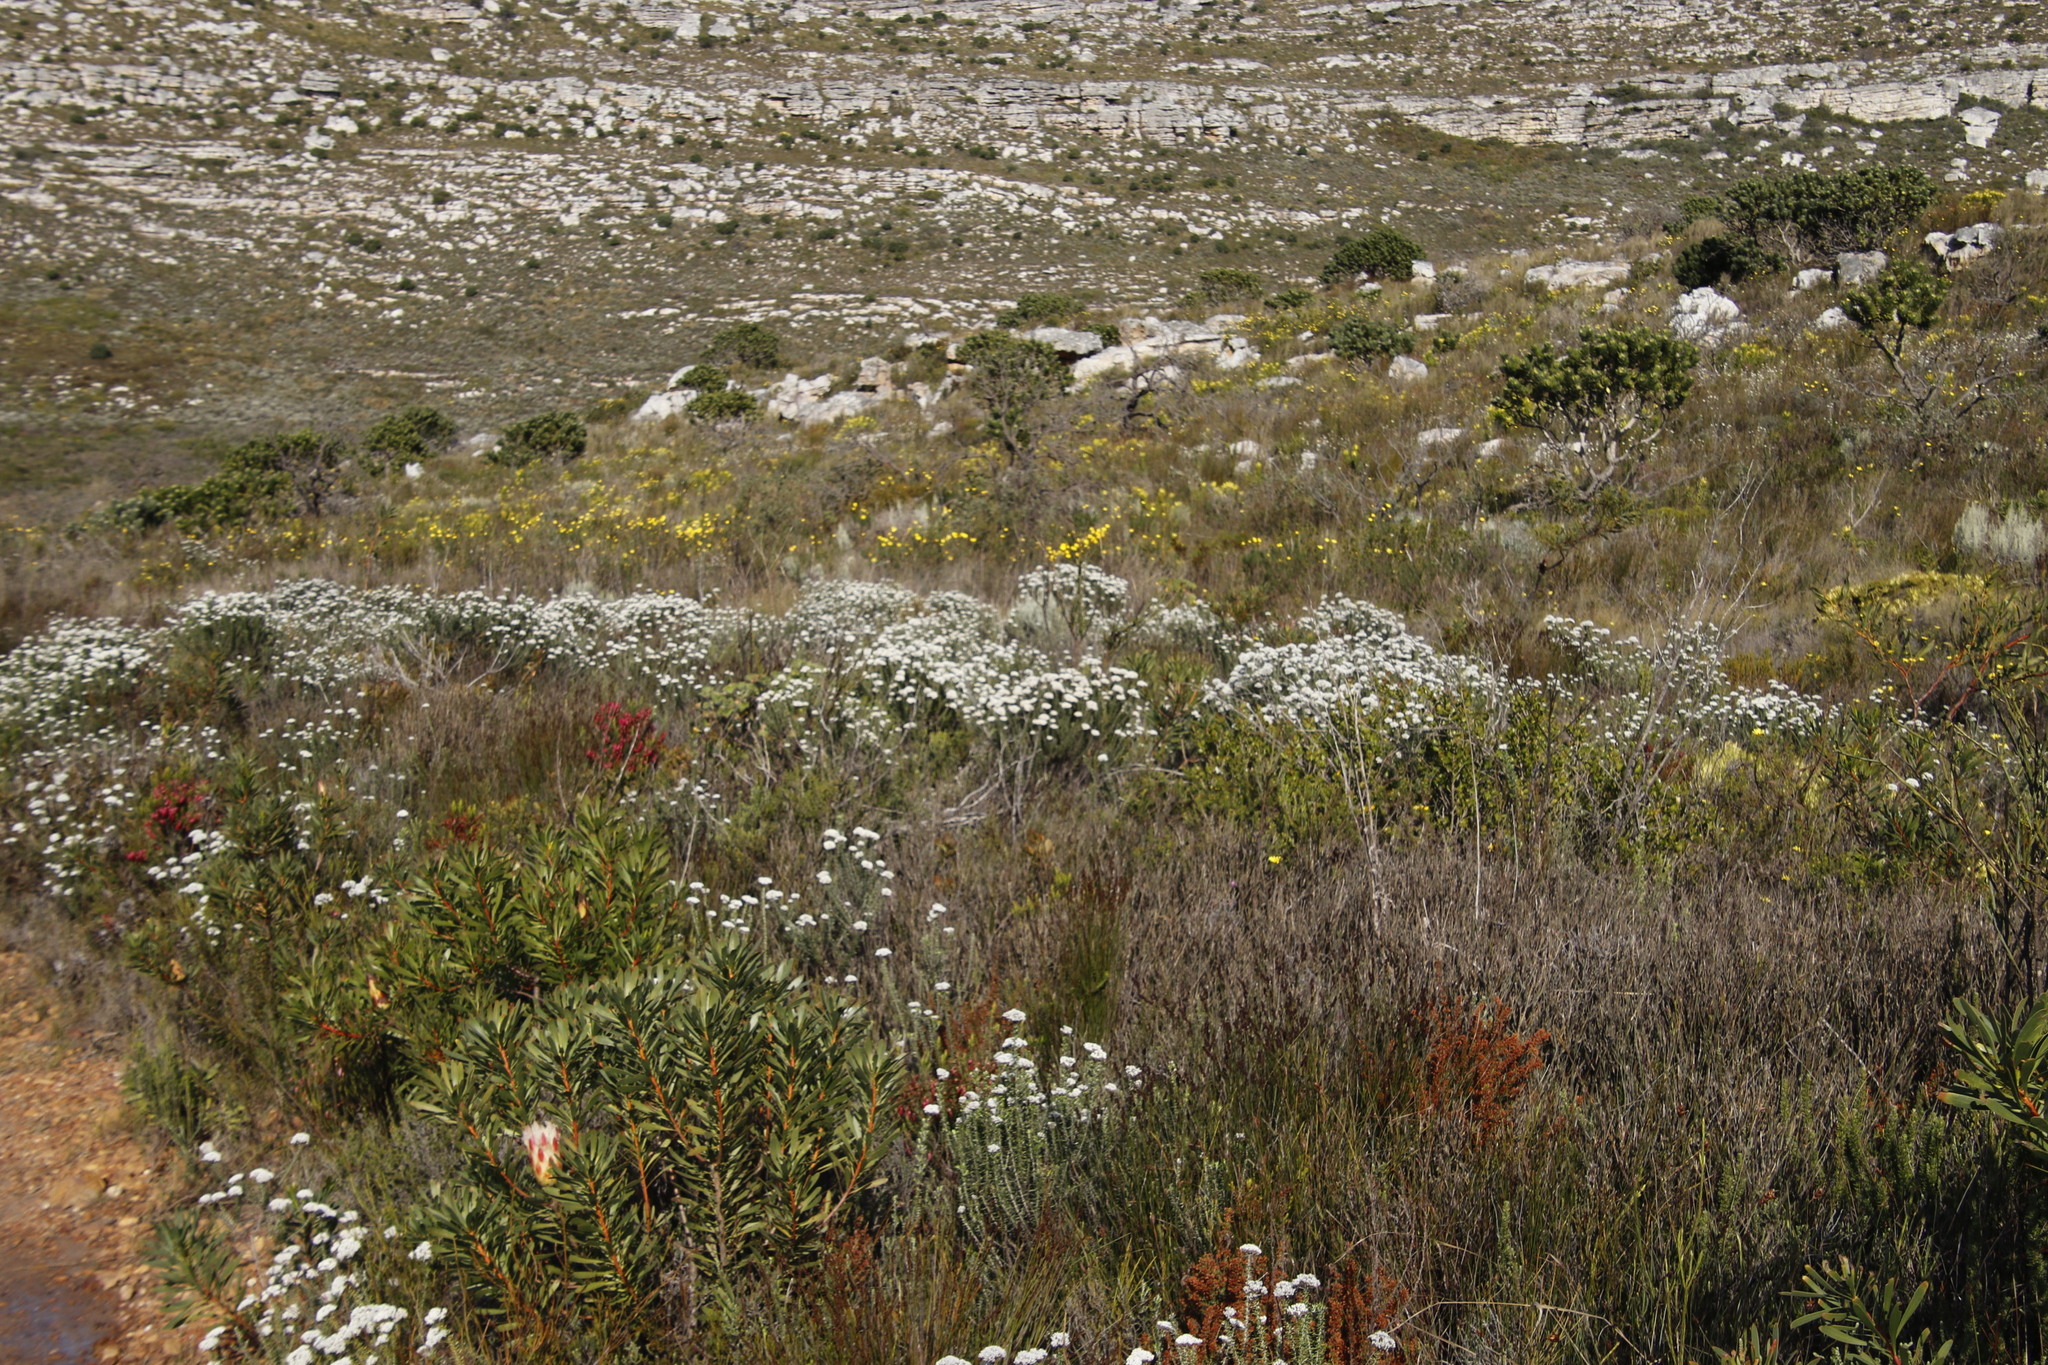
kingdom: Plantae
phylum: Tracheophyta
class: Magnoliopsida
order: Asterales
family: Asteraceae
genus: Metalasia
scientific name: Metalasia densa
